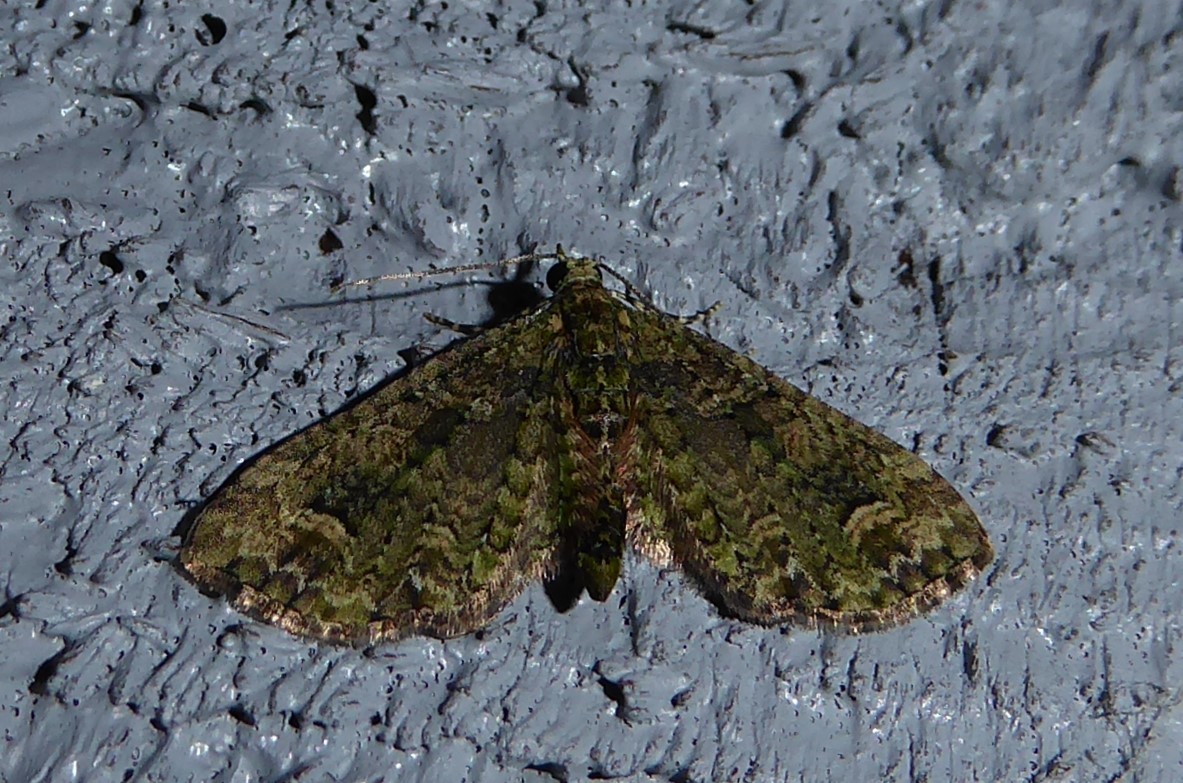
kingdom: Animalia
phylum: Arthropoda
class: Insecta
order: Lepidoptera
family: Geometridae
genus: Idaea
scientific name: Idaea mutanda
